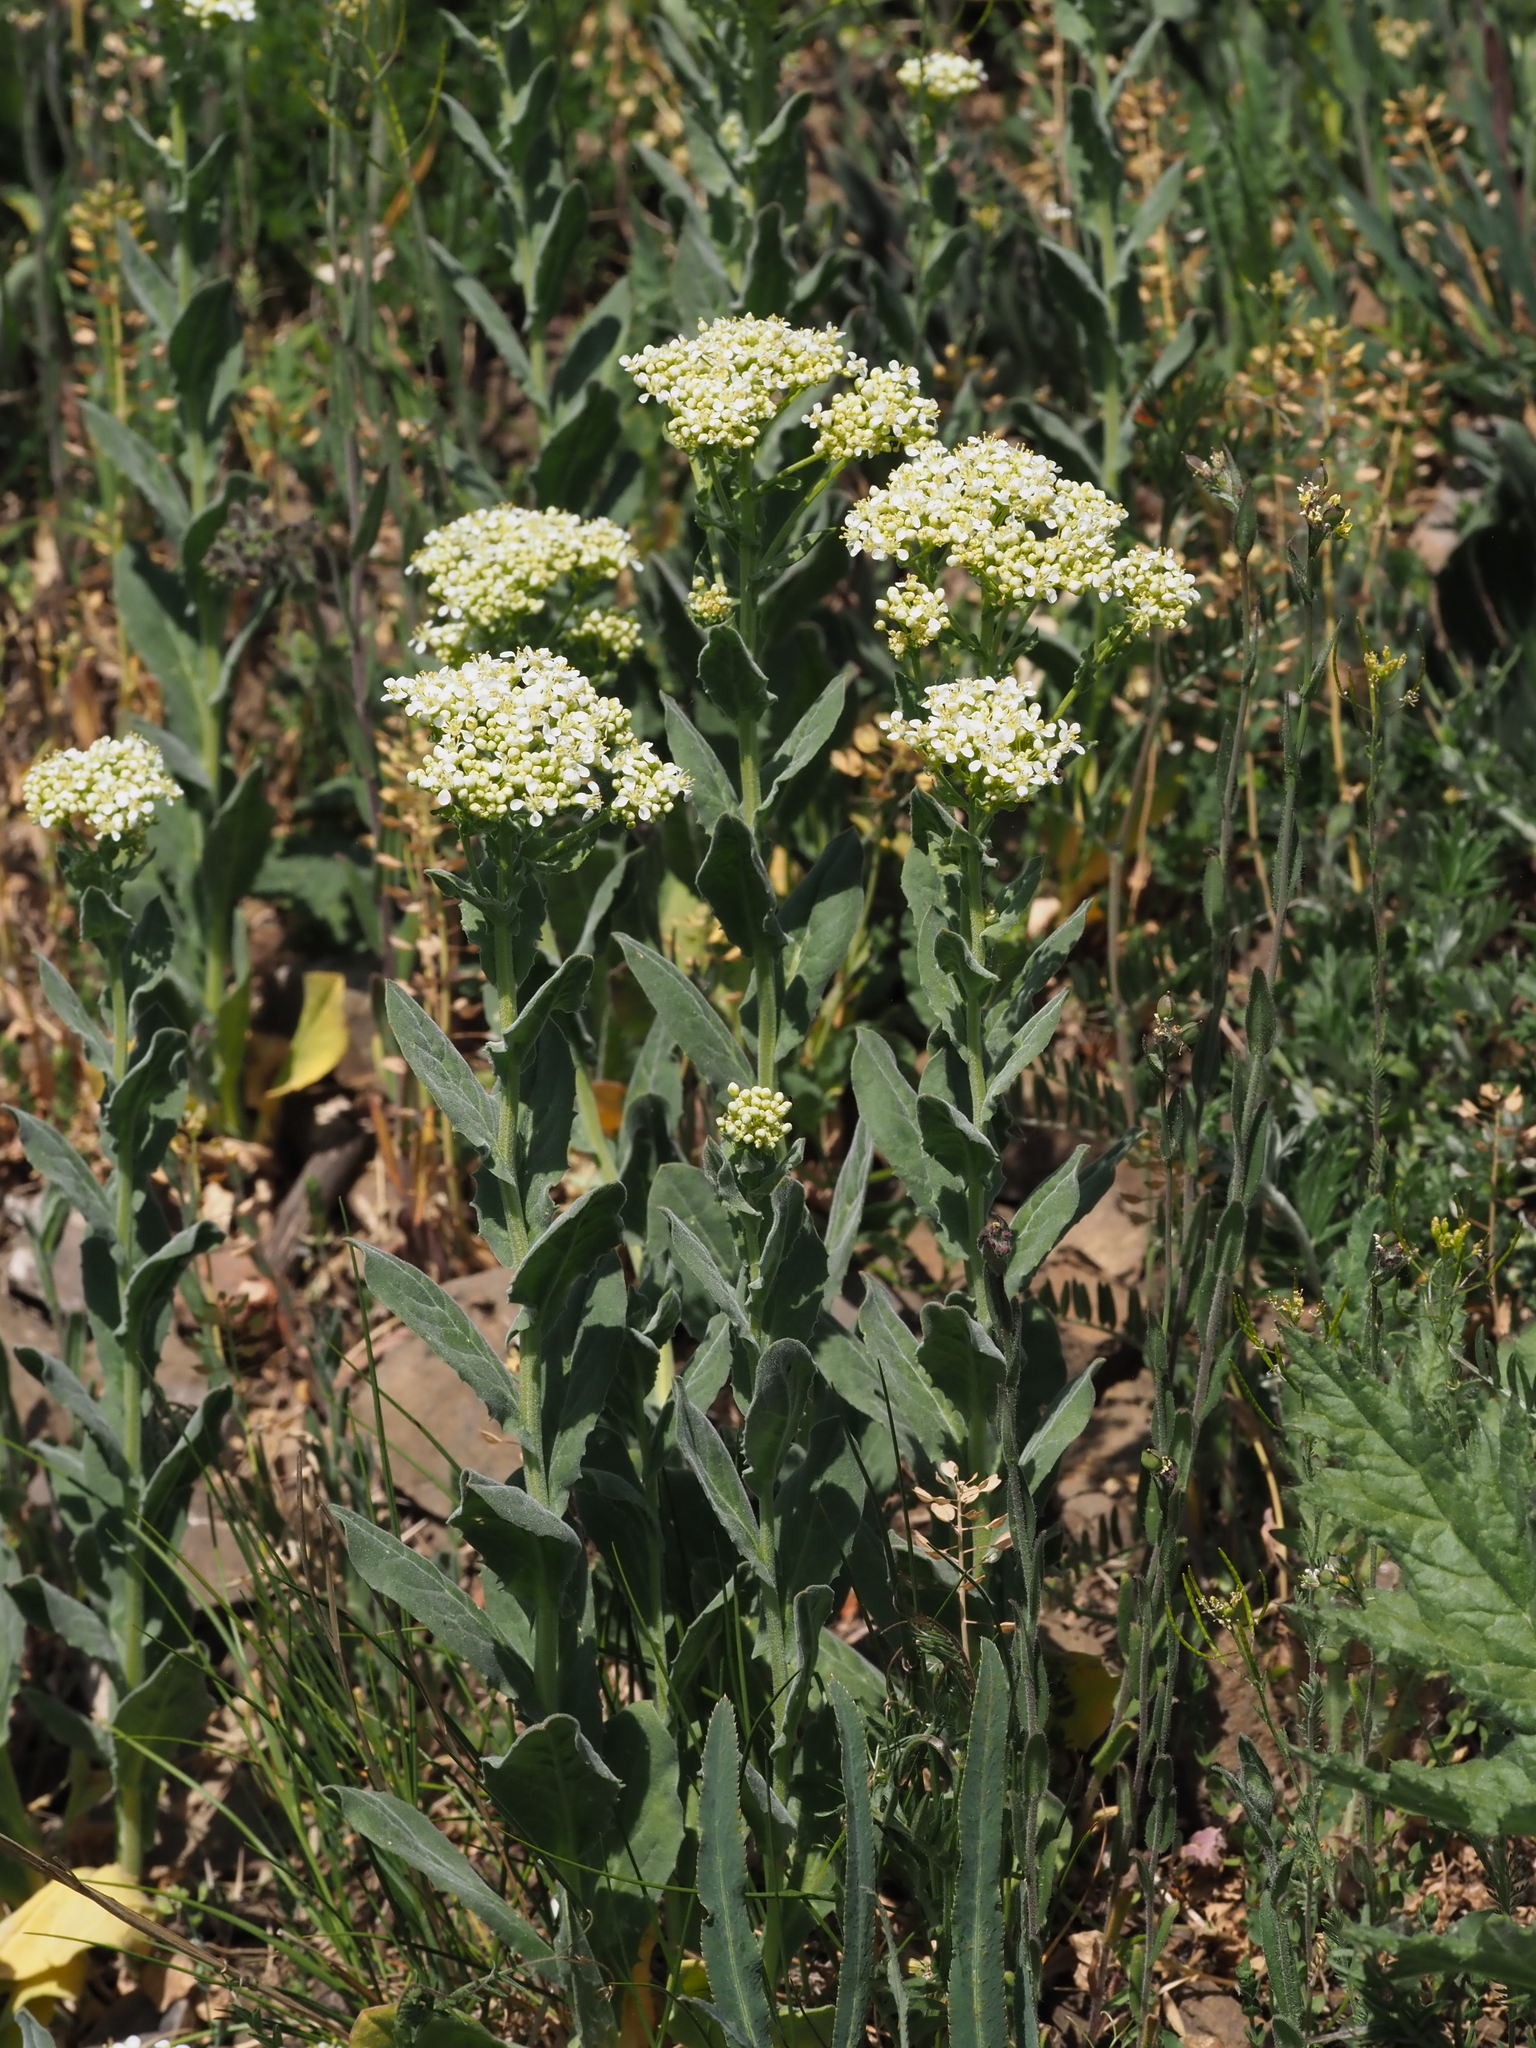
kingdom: Plantae
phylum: Tracheophyta
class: Magnoliopsida
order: Brassicales
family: Brassicaceae
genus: Lepidium
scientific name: Lepidium draba
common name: Hoary cress
